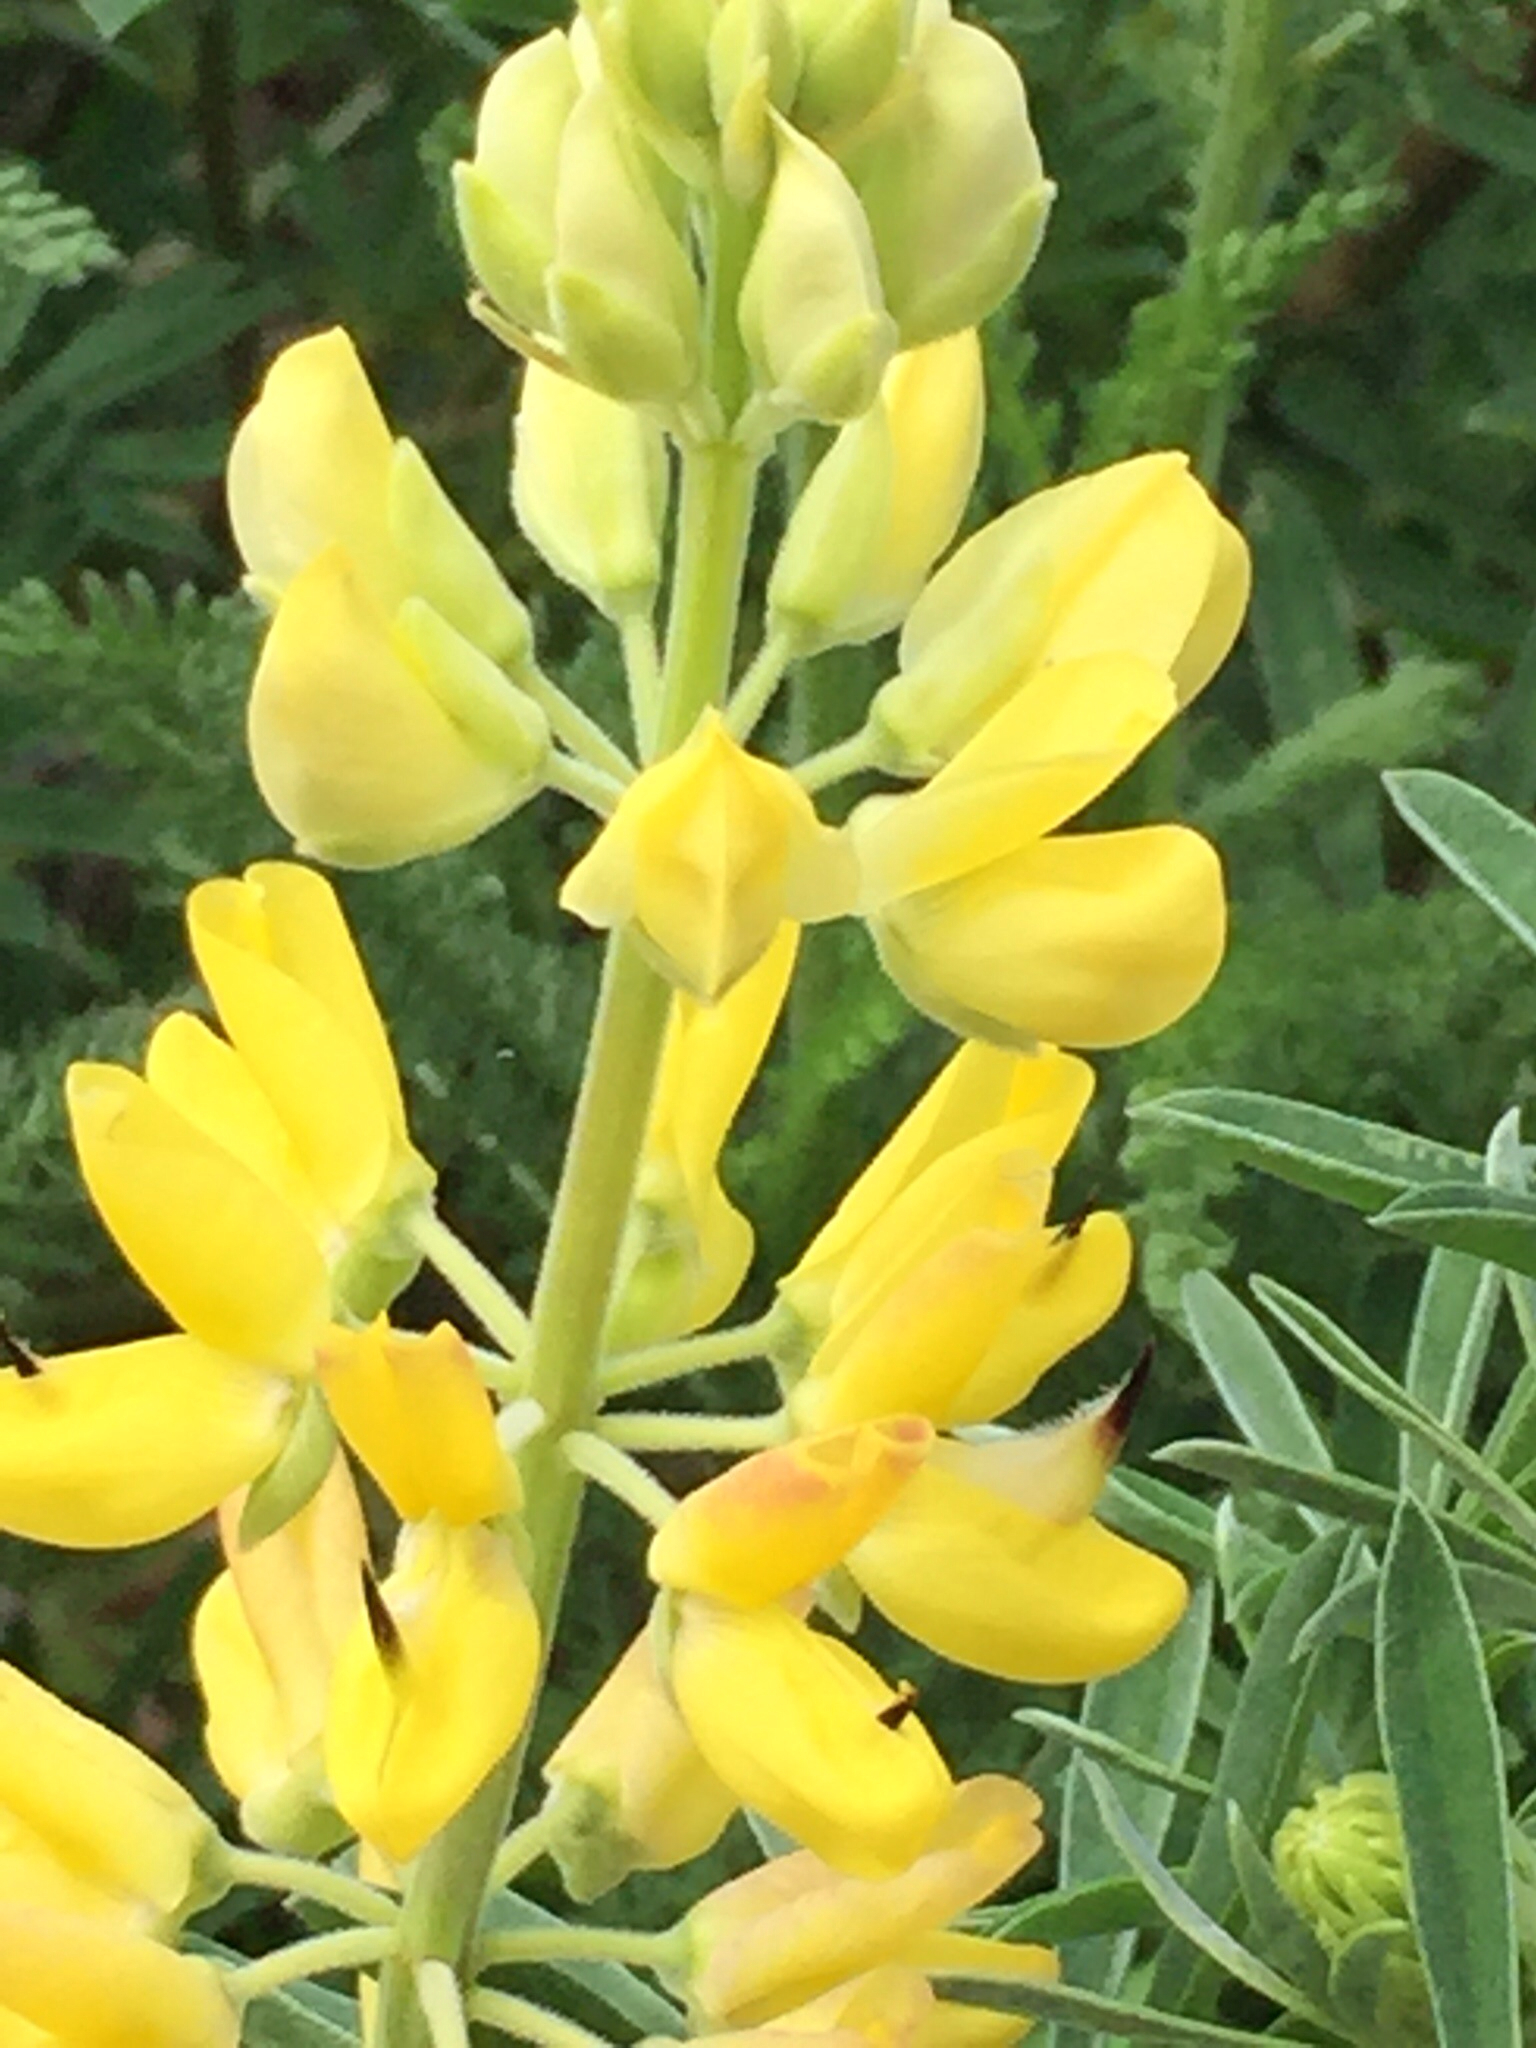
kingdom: Plantae
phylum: Tracheophyta
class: Magnoliopsida
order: Fabales
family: Fabaceae
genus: Lupinus
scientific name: Lupinus arboreus
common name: Yellow bush lupine
